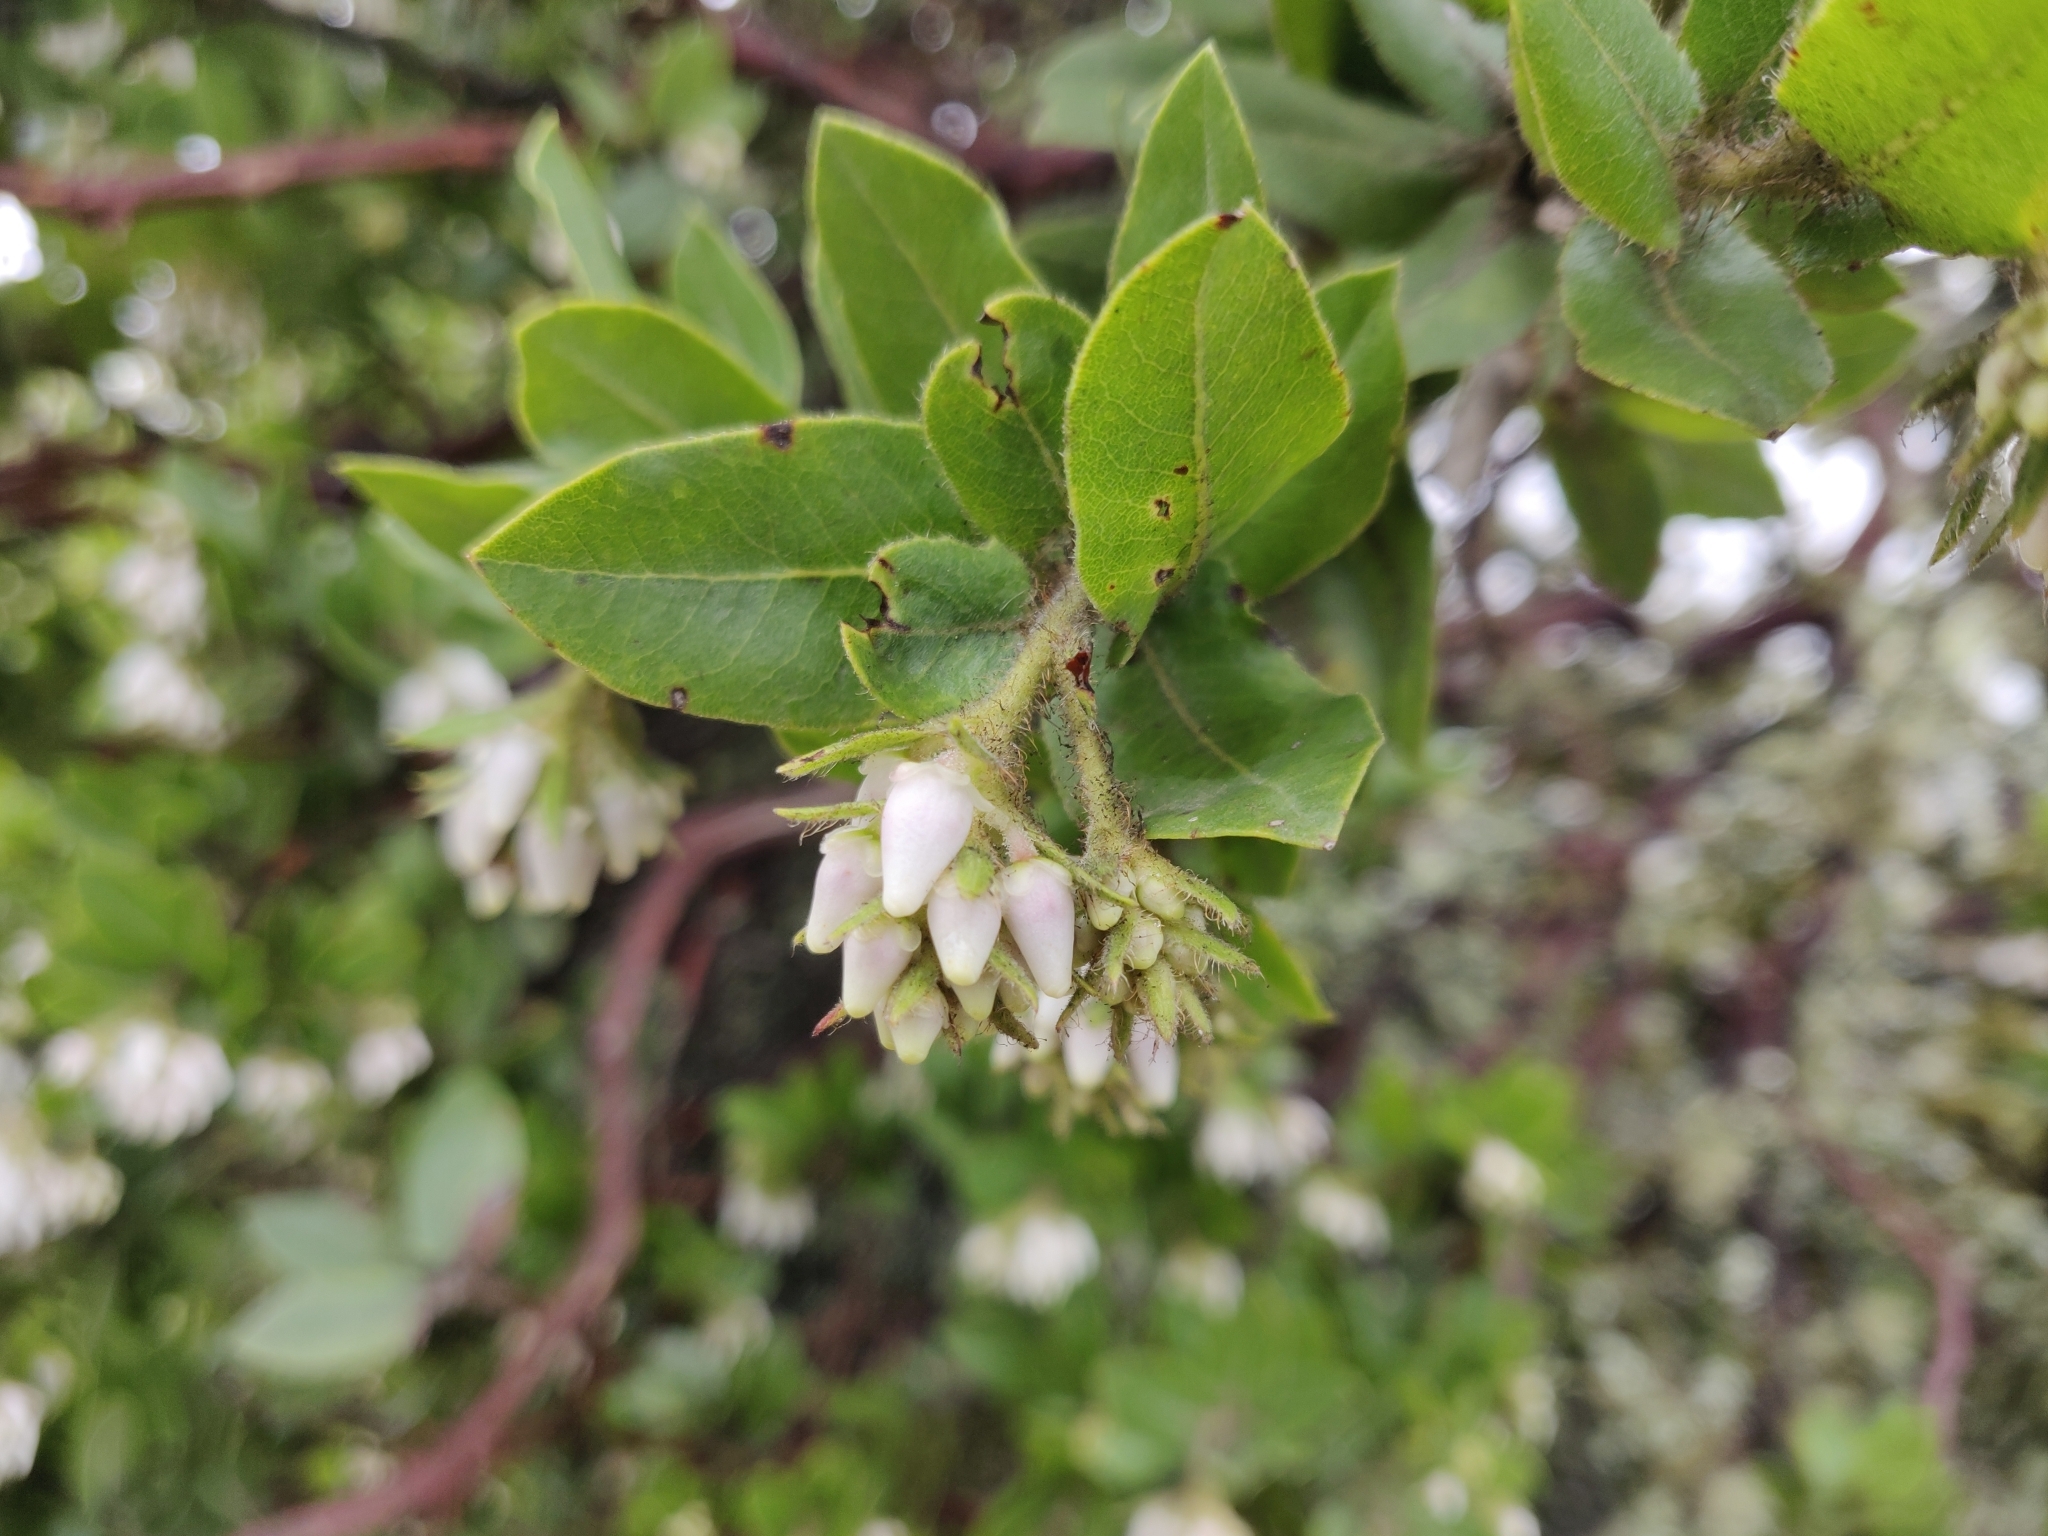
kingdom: Plantae
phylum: Tracheophyta
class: Magnoliopsida
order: Ericales
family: Ericaceae
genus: Arctostaphylos
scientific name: Arctostaphylos montaraensis
